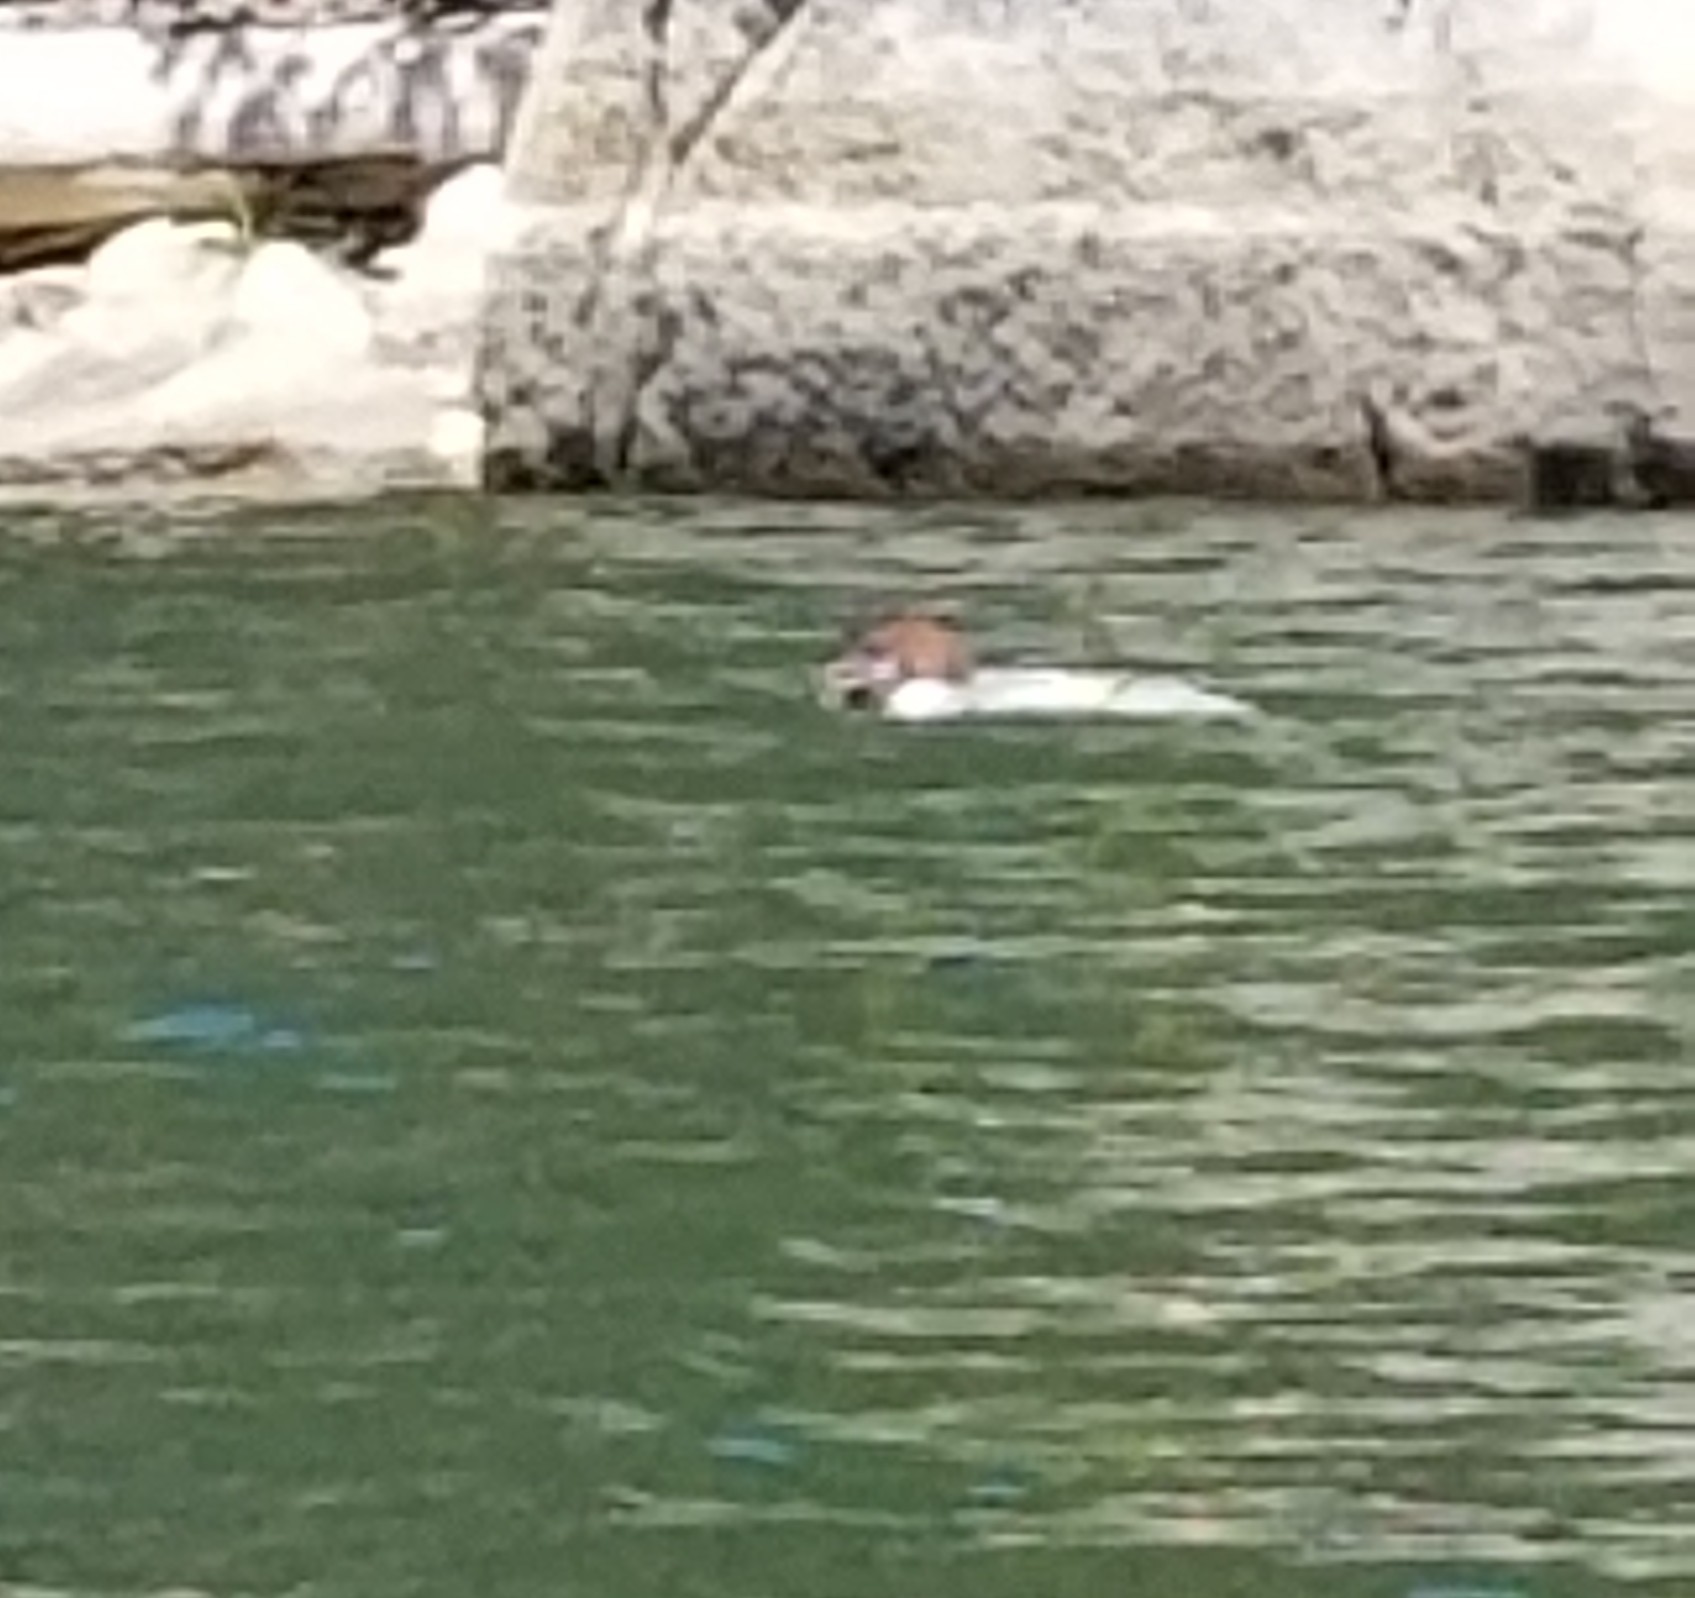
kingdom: Animalia
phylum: Chordata
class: Aves
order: Anseriformes
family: Anatidae
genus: Mergus
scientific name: Mergus merganser
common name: Common merganser
